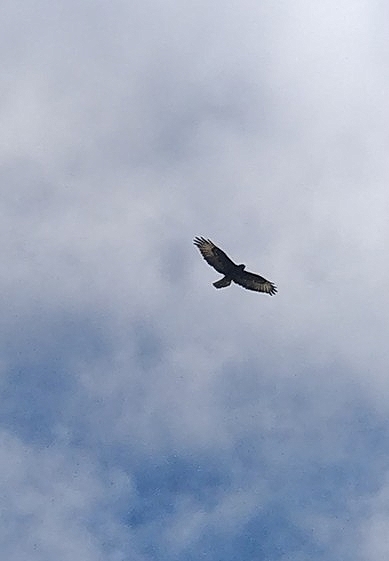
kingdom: Animalia
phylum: Chordata
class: Aves
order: Accipitriformes
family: Accipitridae
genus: Buteo
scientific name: Buteo buteo
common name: Common buzzard
